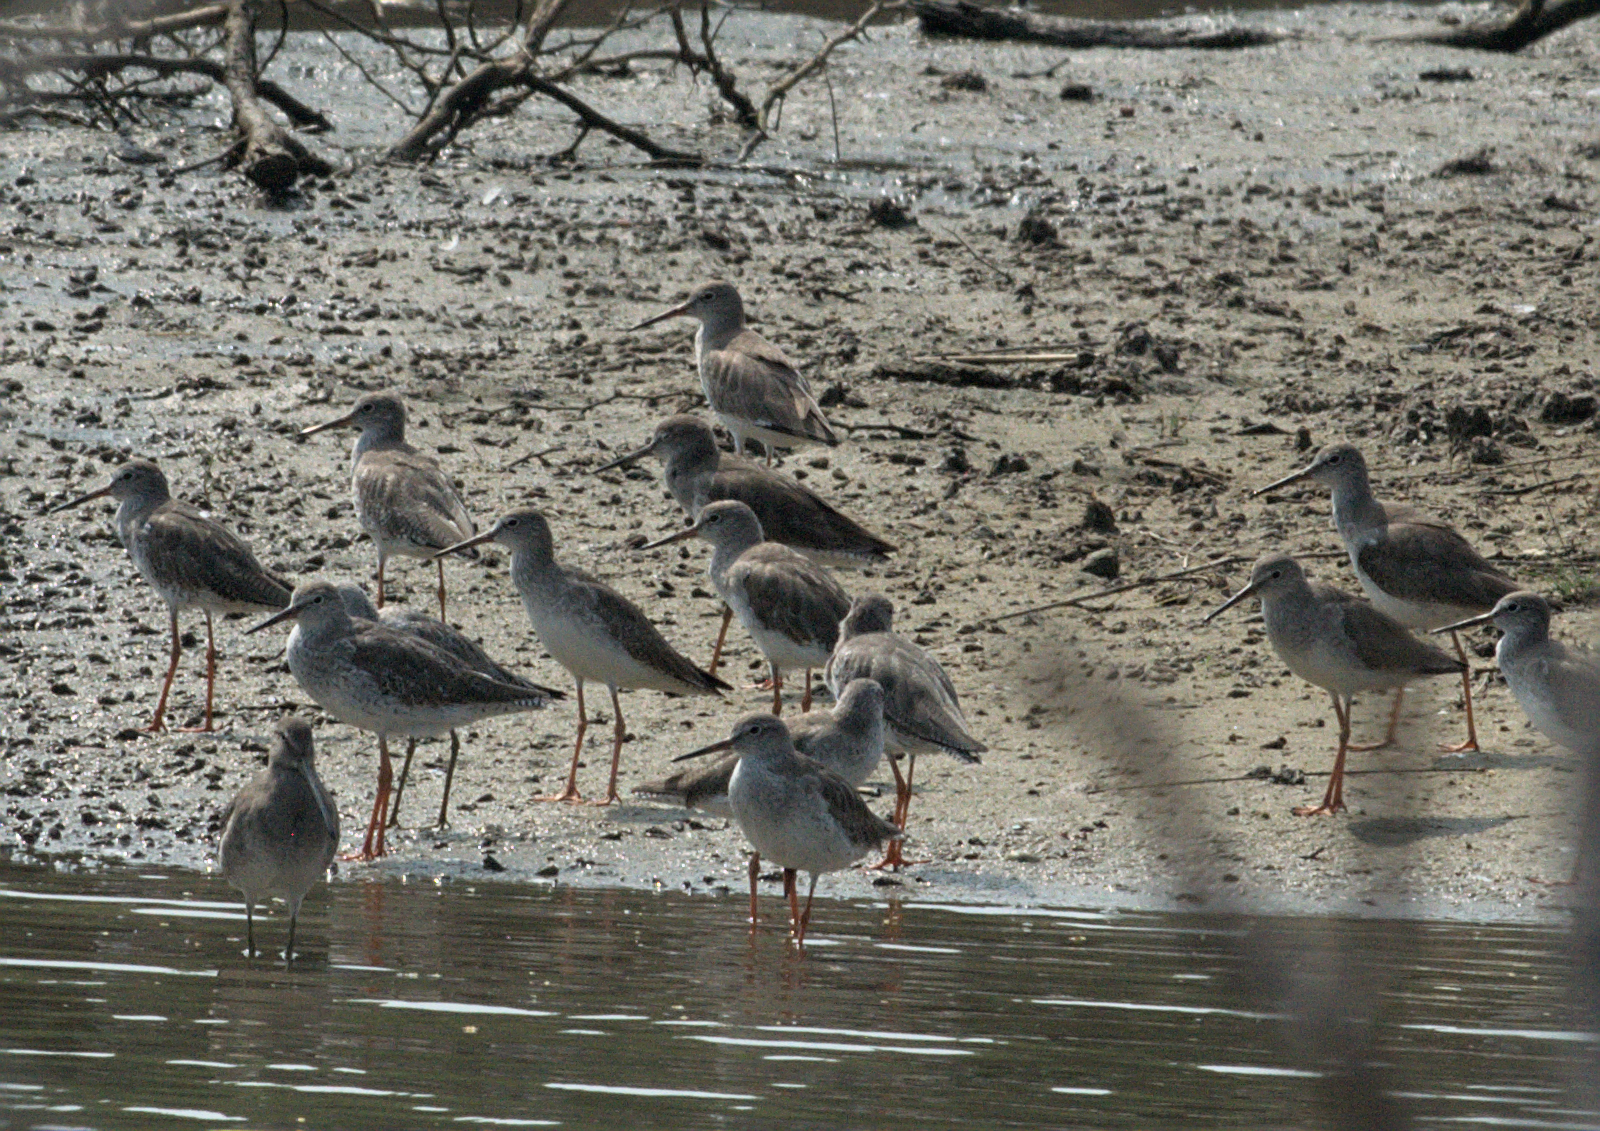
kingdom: Animalia
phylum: Chordata
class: Aves
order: Charadriiformes
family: Scolopacidae
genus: Tringa
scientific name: Tringa totanus
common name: Common redshank
